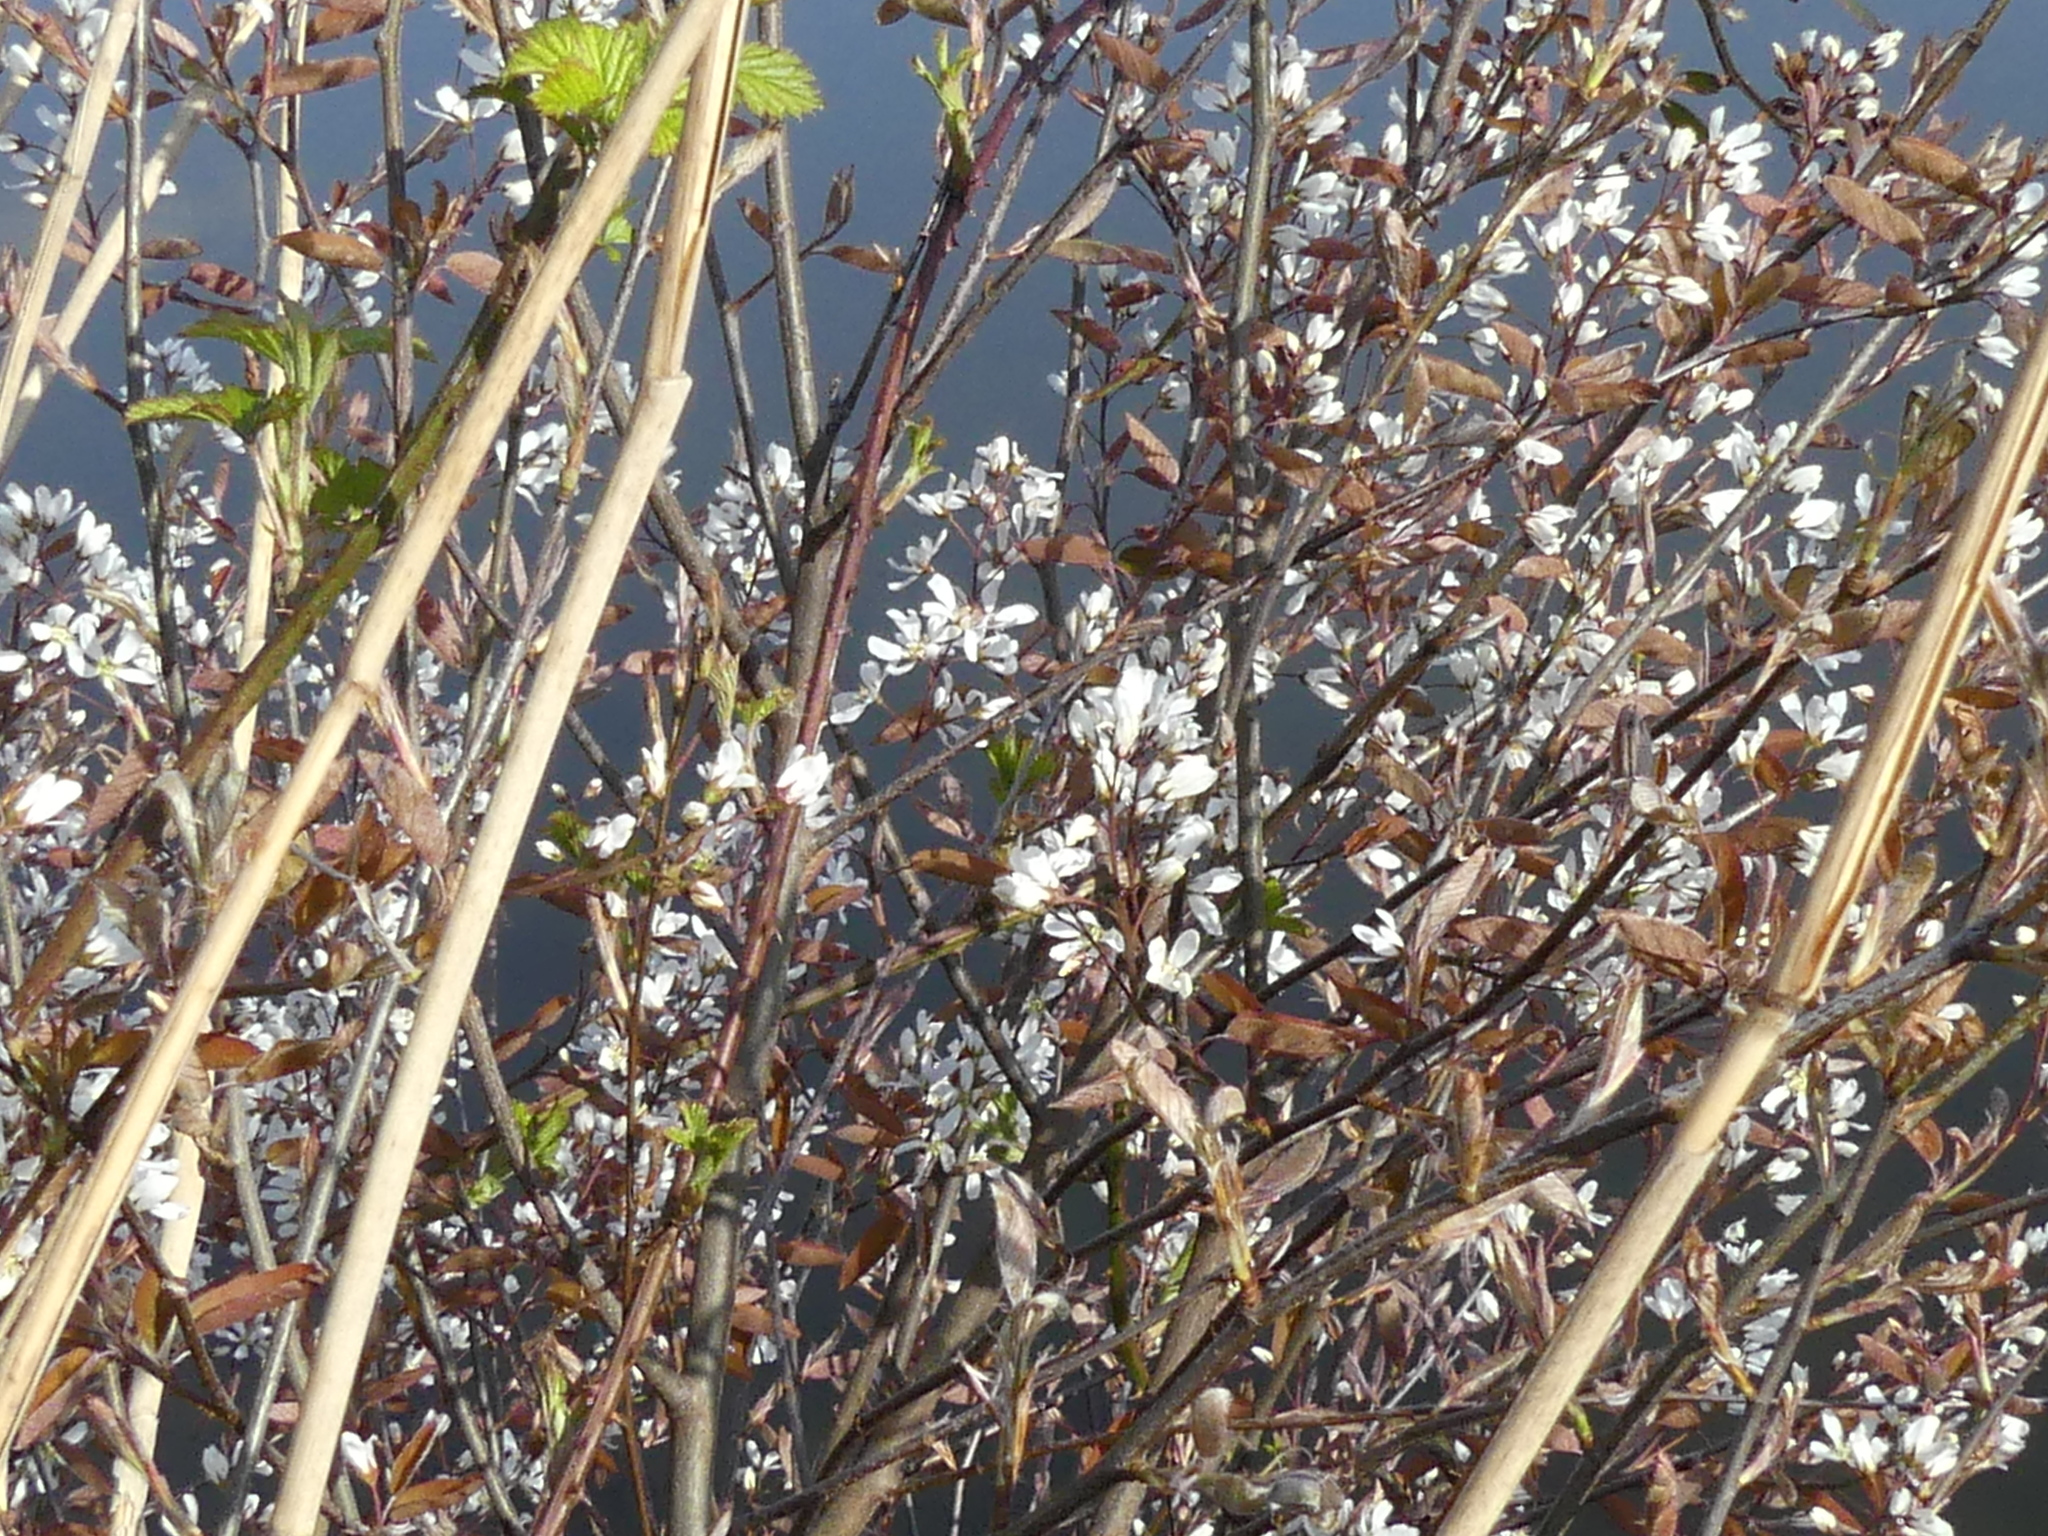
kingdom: Plantae
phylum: Tracheophyta
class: Magnoliopsida
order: Rosales
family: Rosaceae
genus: Amelanchier
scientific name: Amelanchier lamarckii
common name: Juneberry
